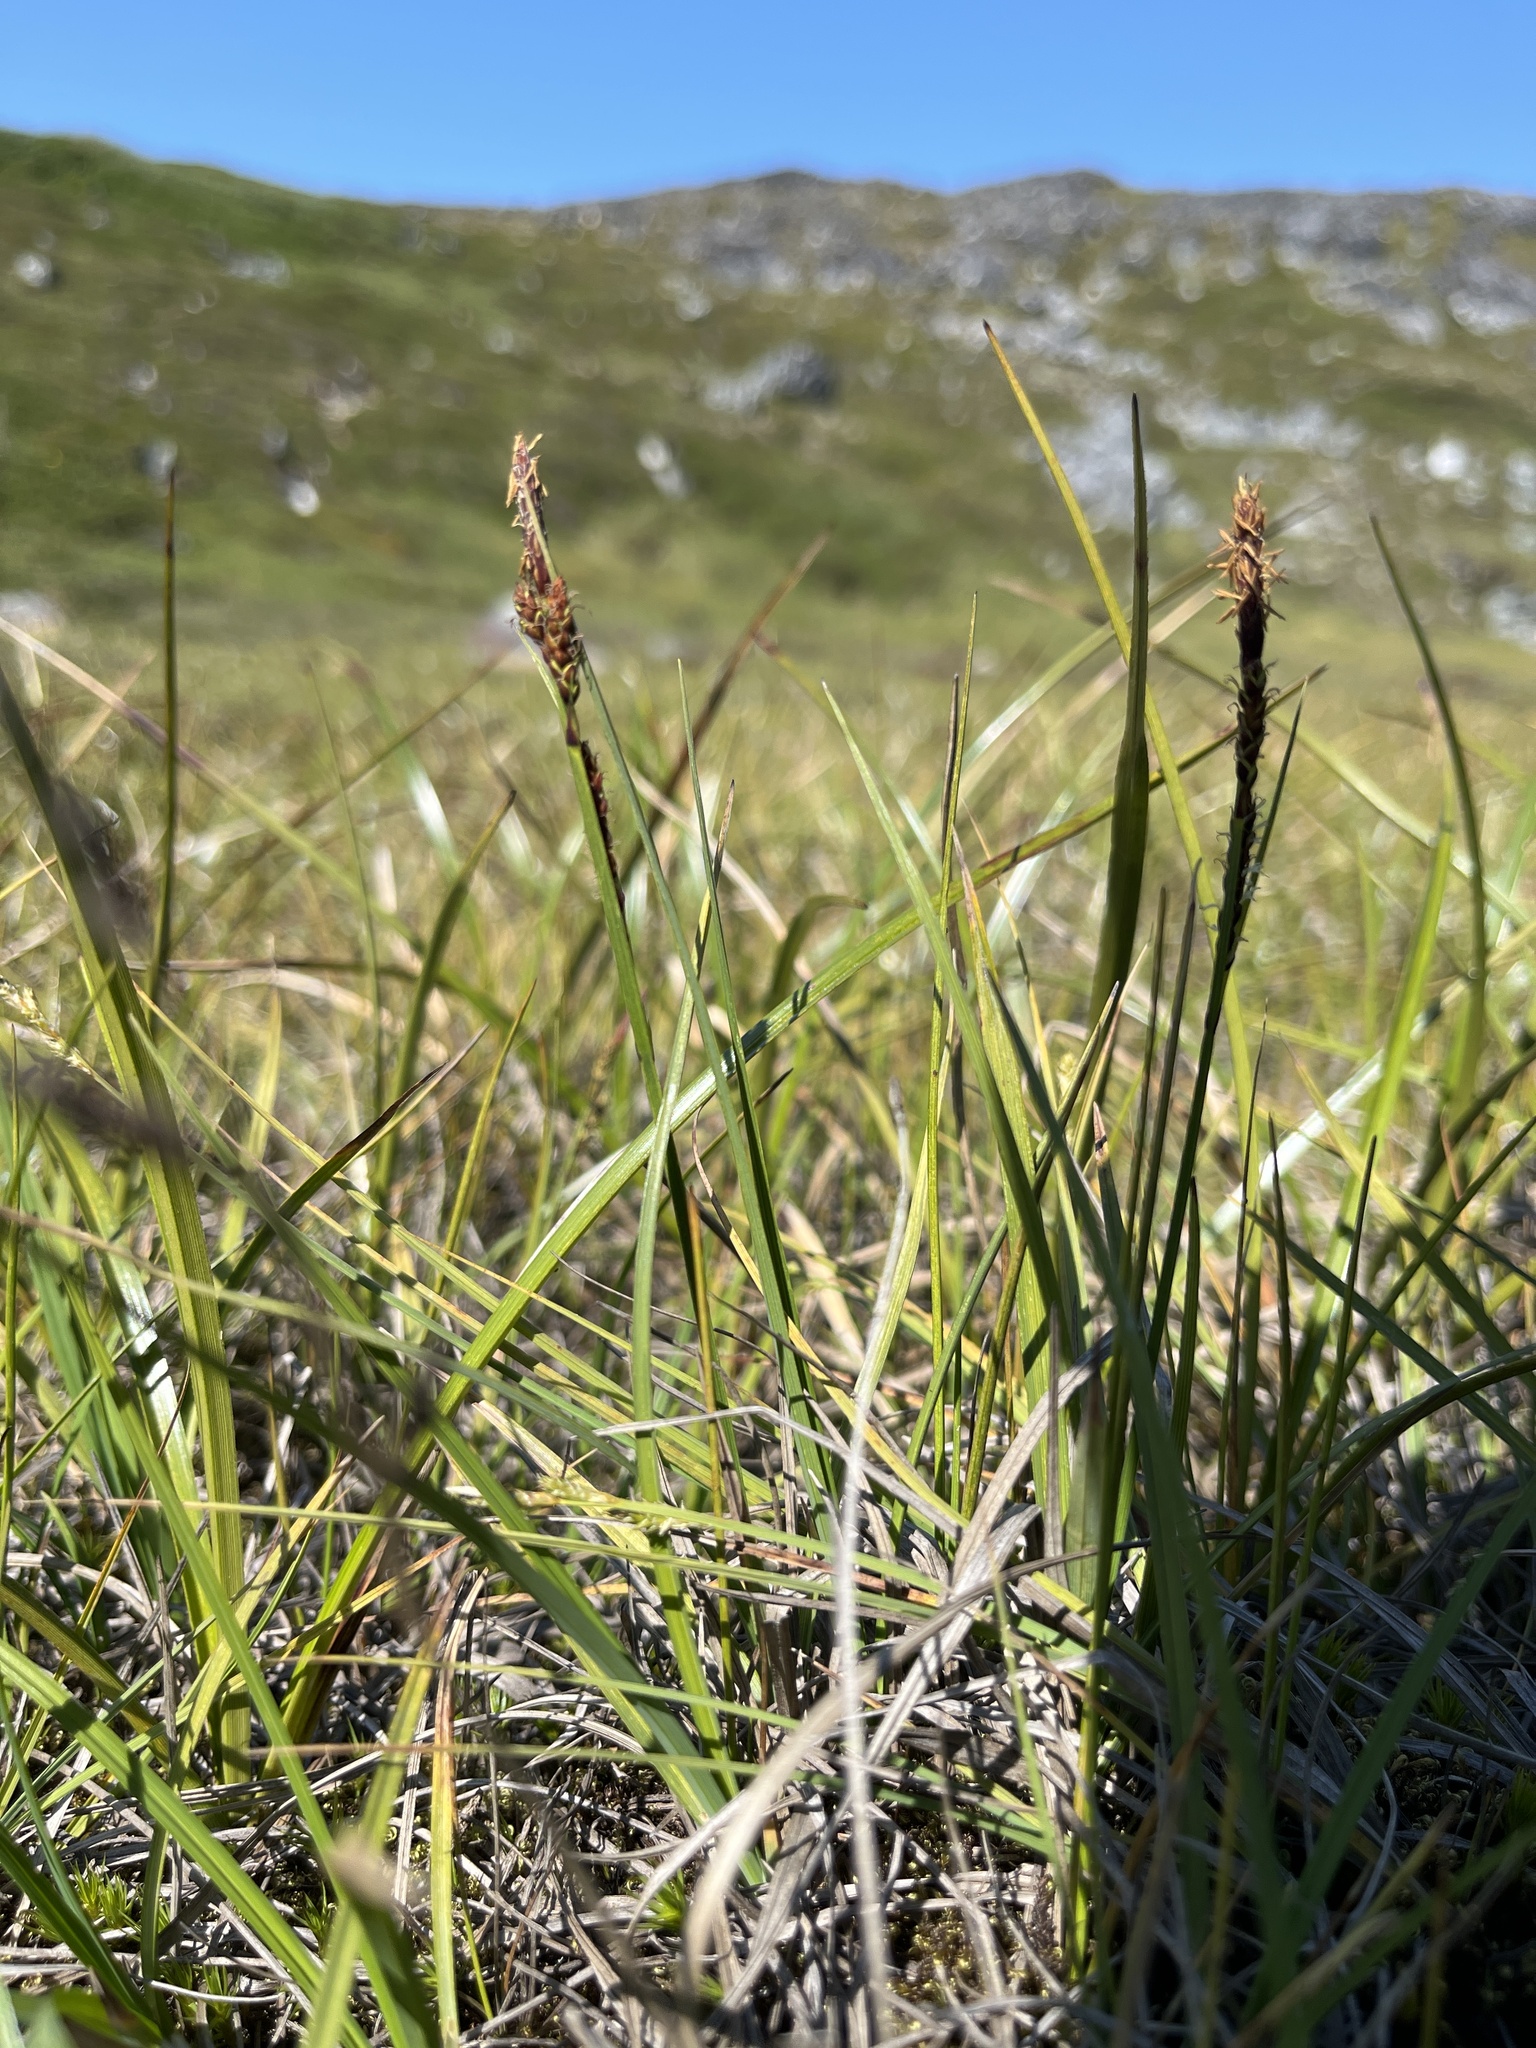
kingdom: Plantae
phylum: Tracheophyta
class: Liliopsida
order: Poales
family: Cyperaceae
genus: Carex
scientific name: Carex bigelowii
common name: Stiff sedge
